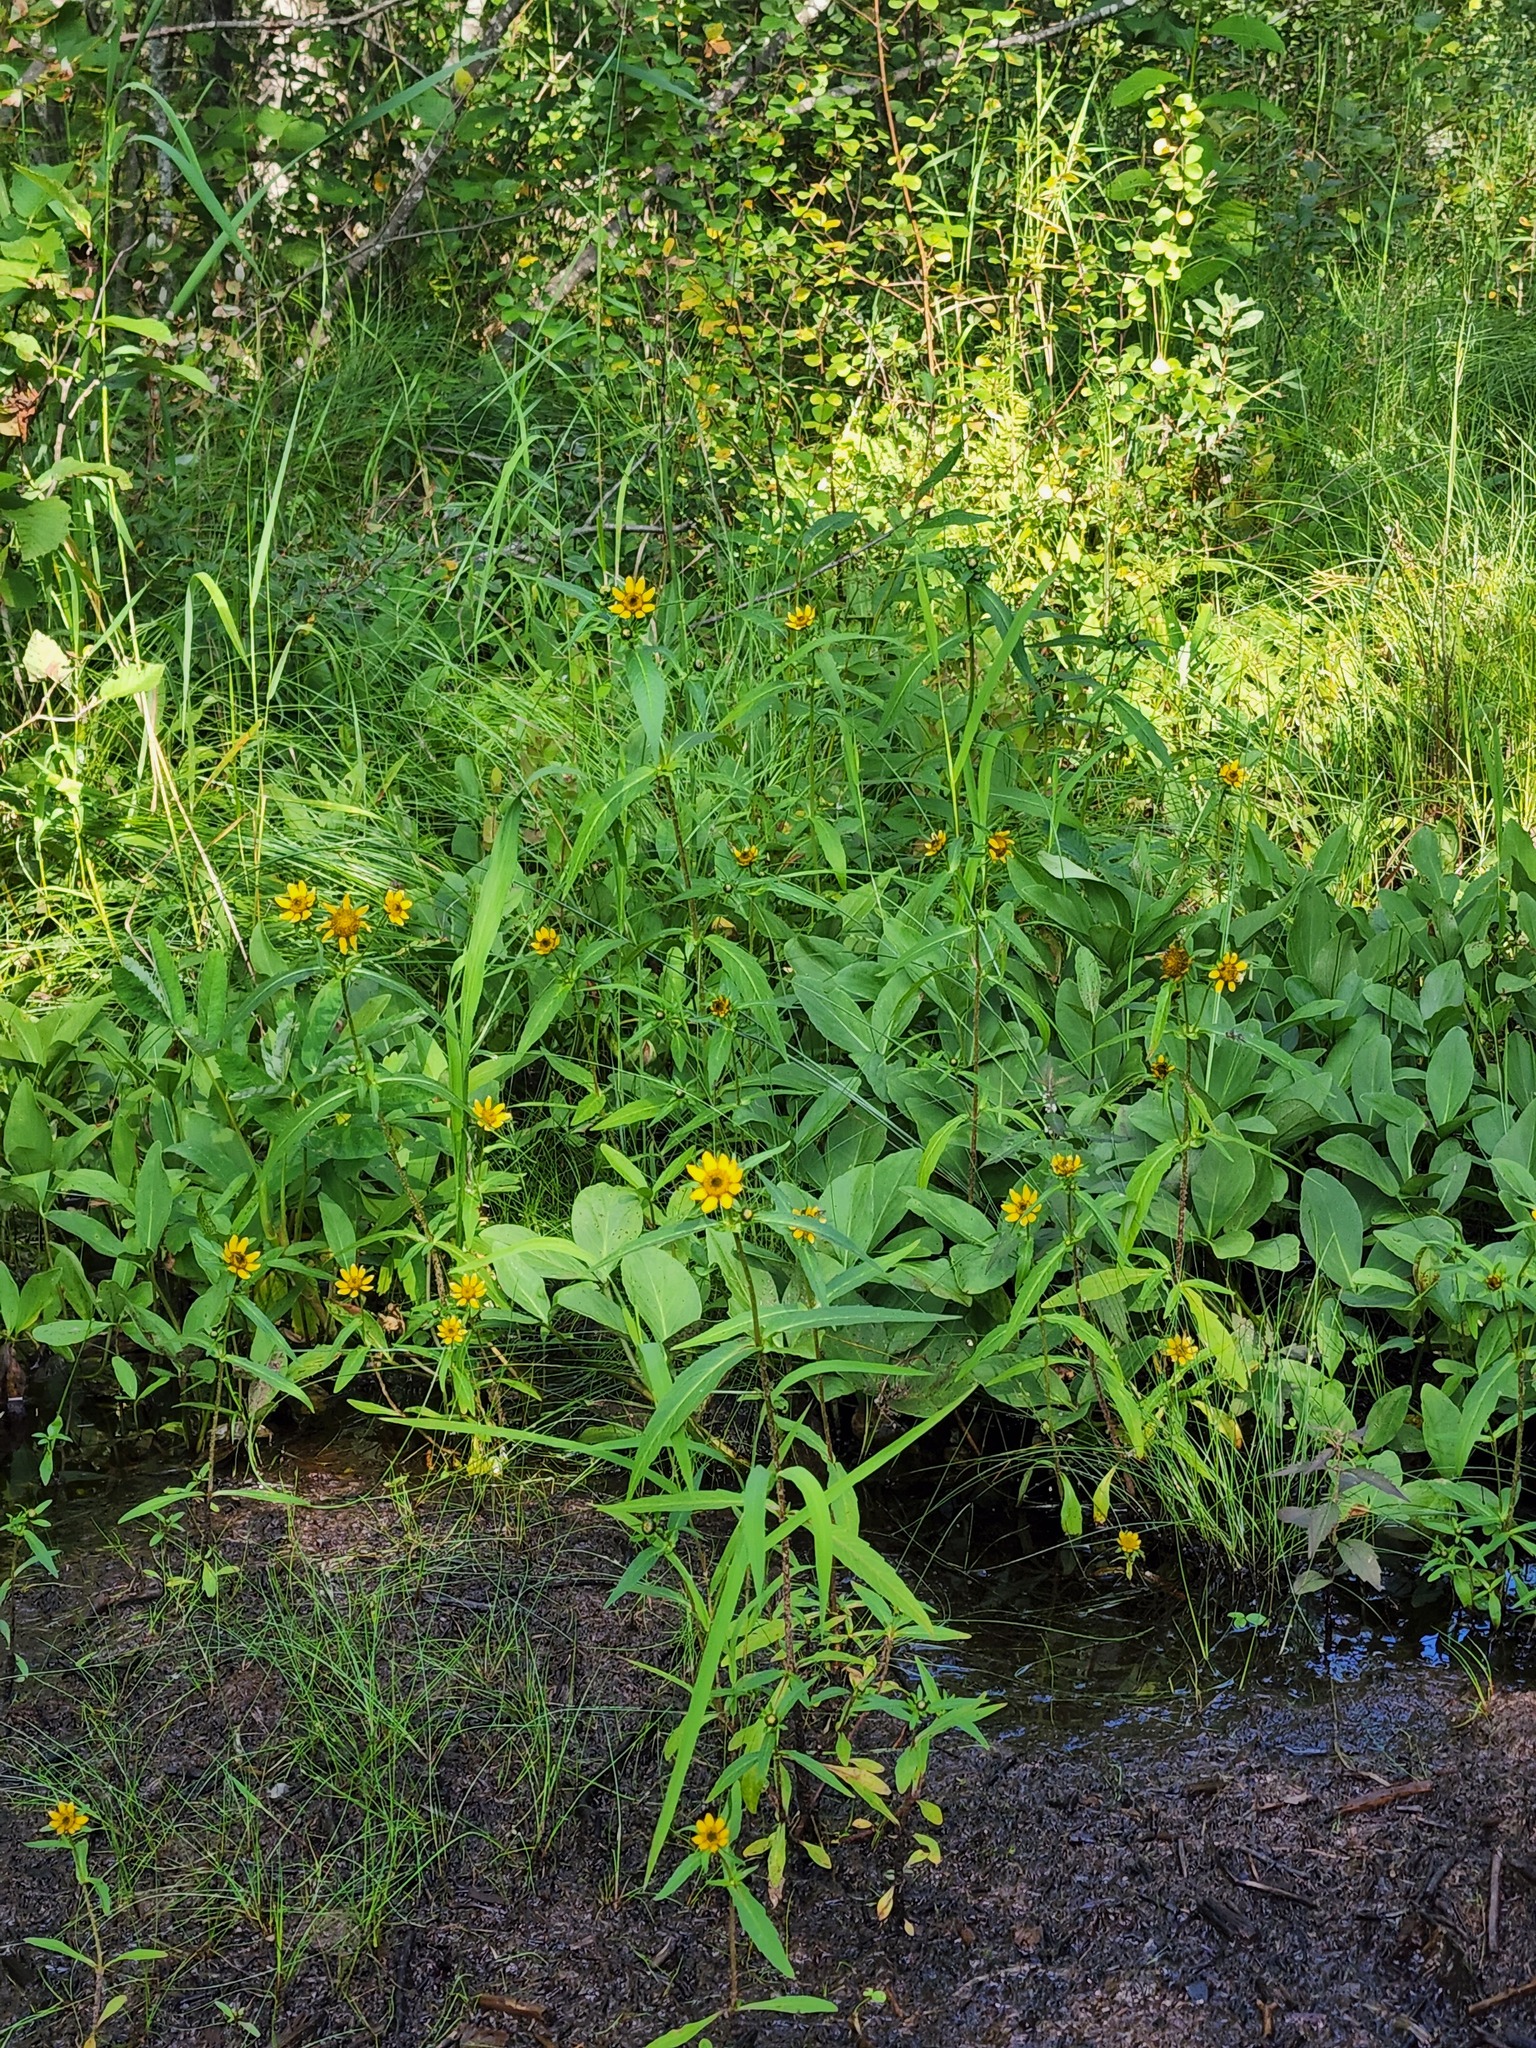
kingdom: Plantae
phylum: Tracheophyta
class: Magnoliopsida
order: Asterales
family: Asteraceae
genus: Bidens
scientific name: Bidens cernua
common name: Nodding bur-marigold
